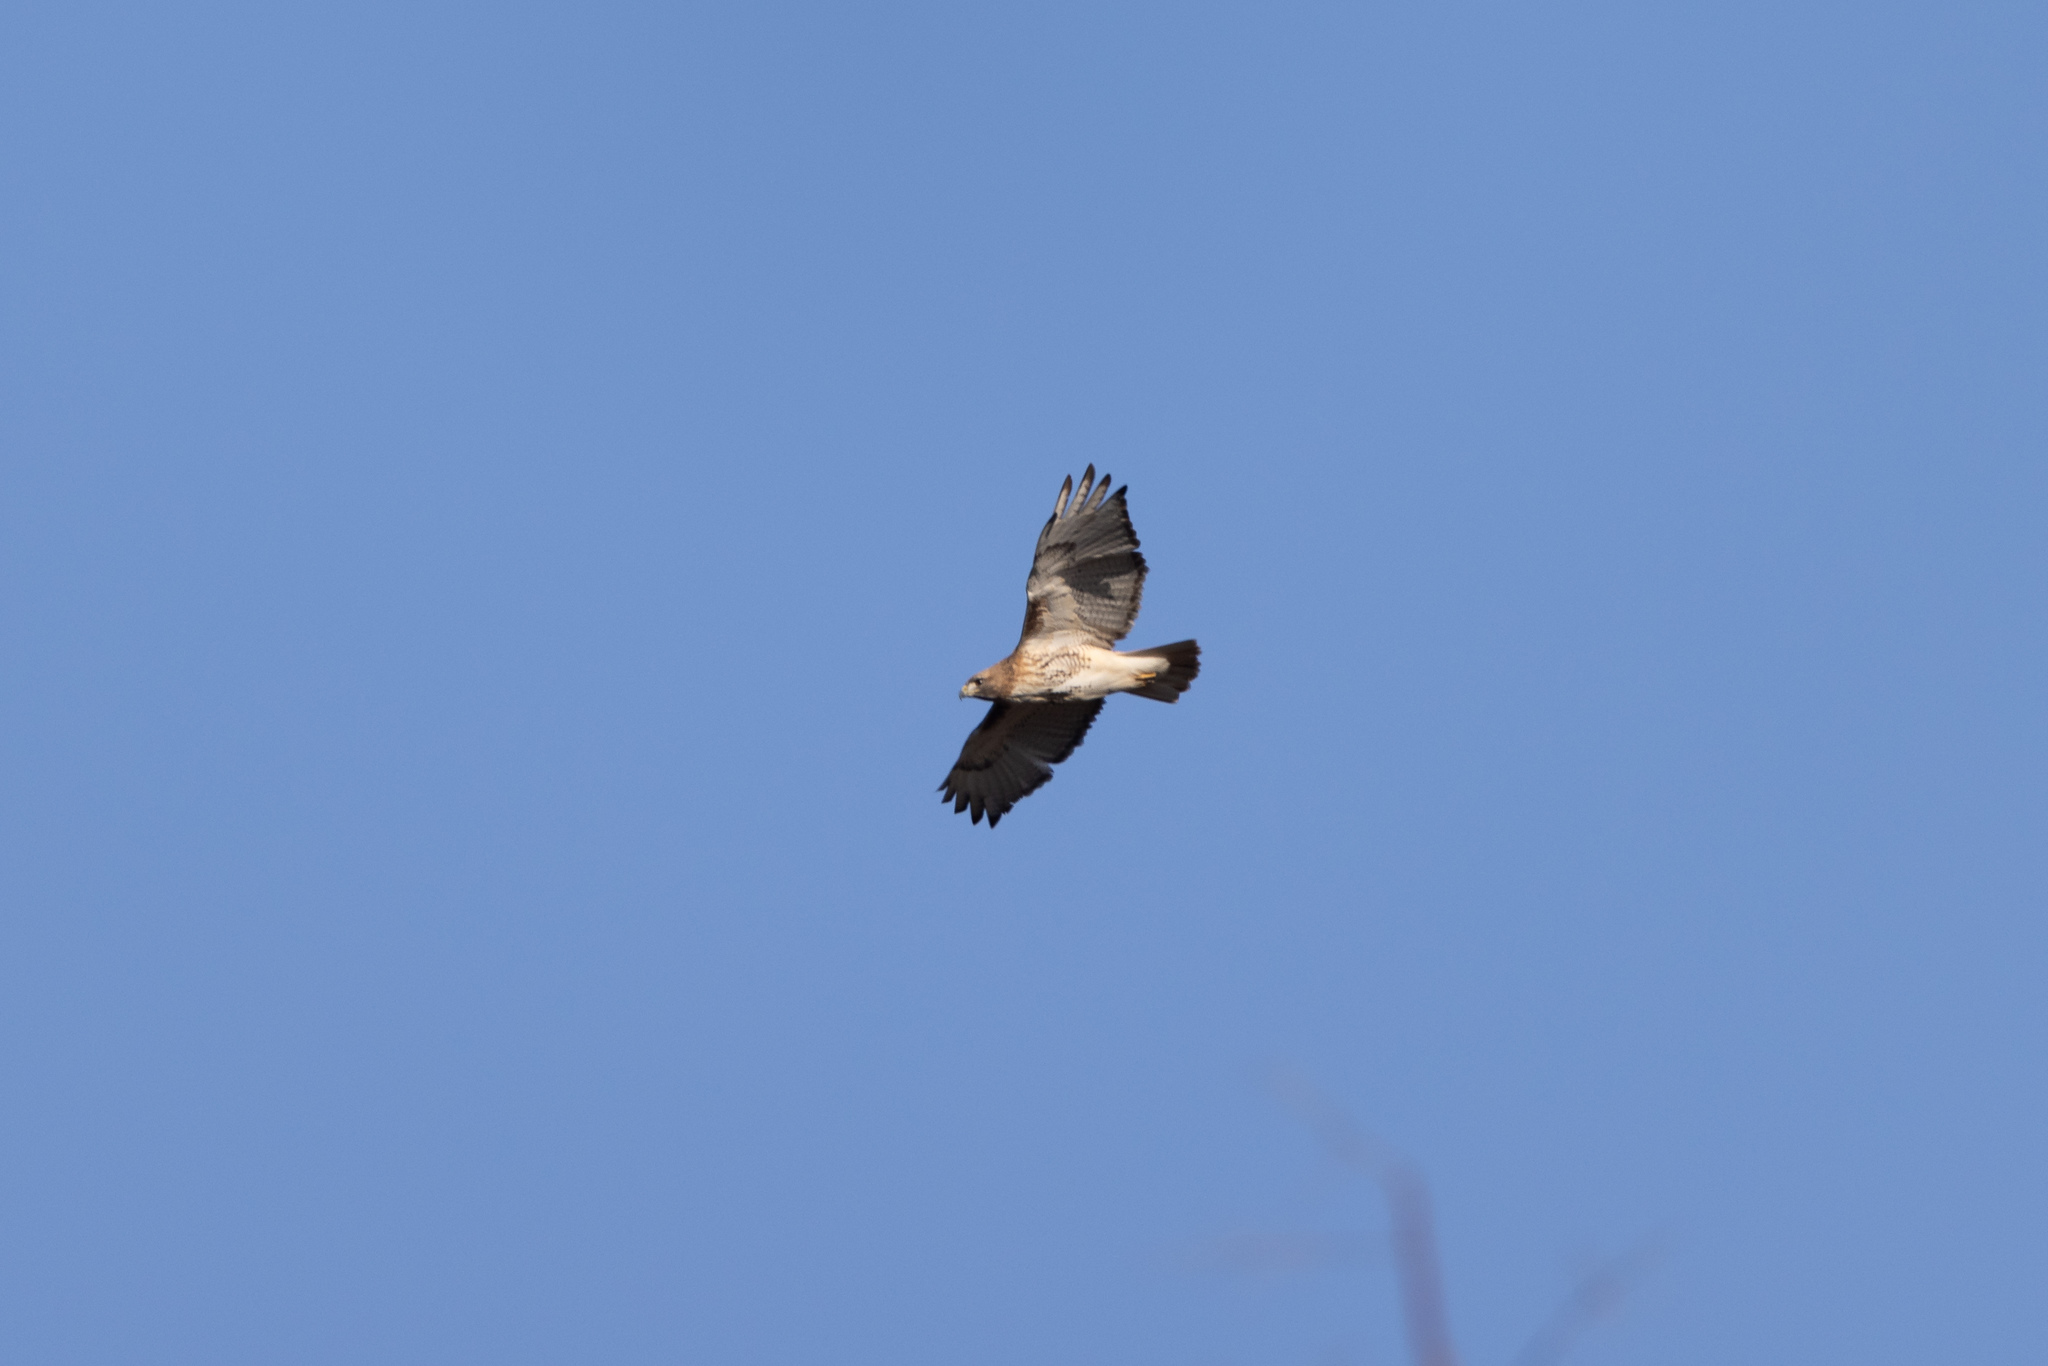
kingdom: Animalia
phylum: Chordata
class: Aves
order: Accipitriformes
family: Accipitridae
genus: Buteo
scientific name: Buteo jamaicensis
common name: Red-tailed hawk
